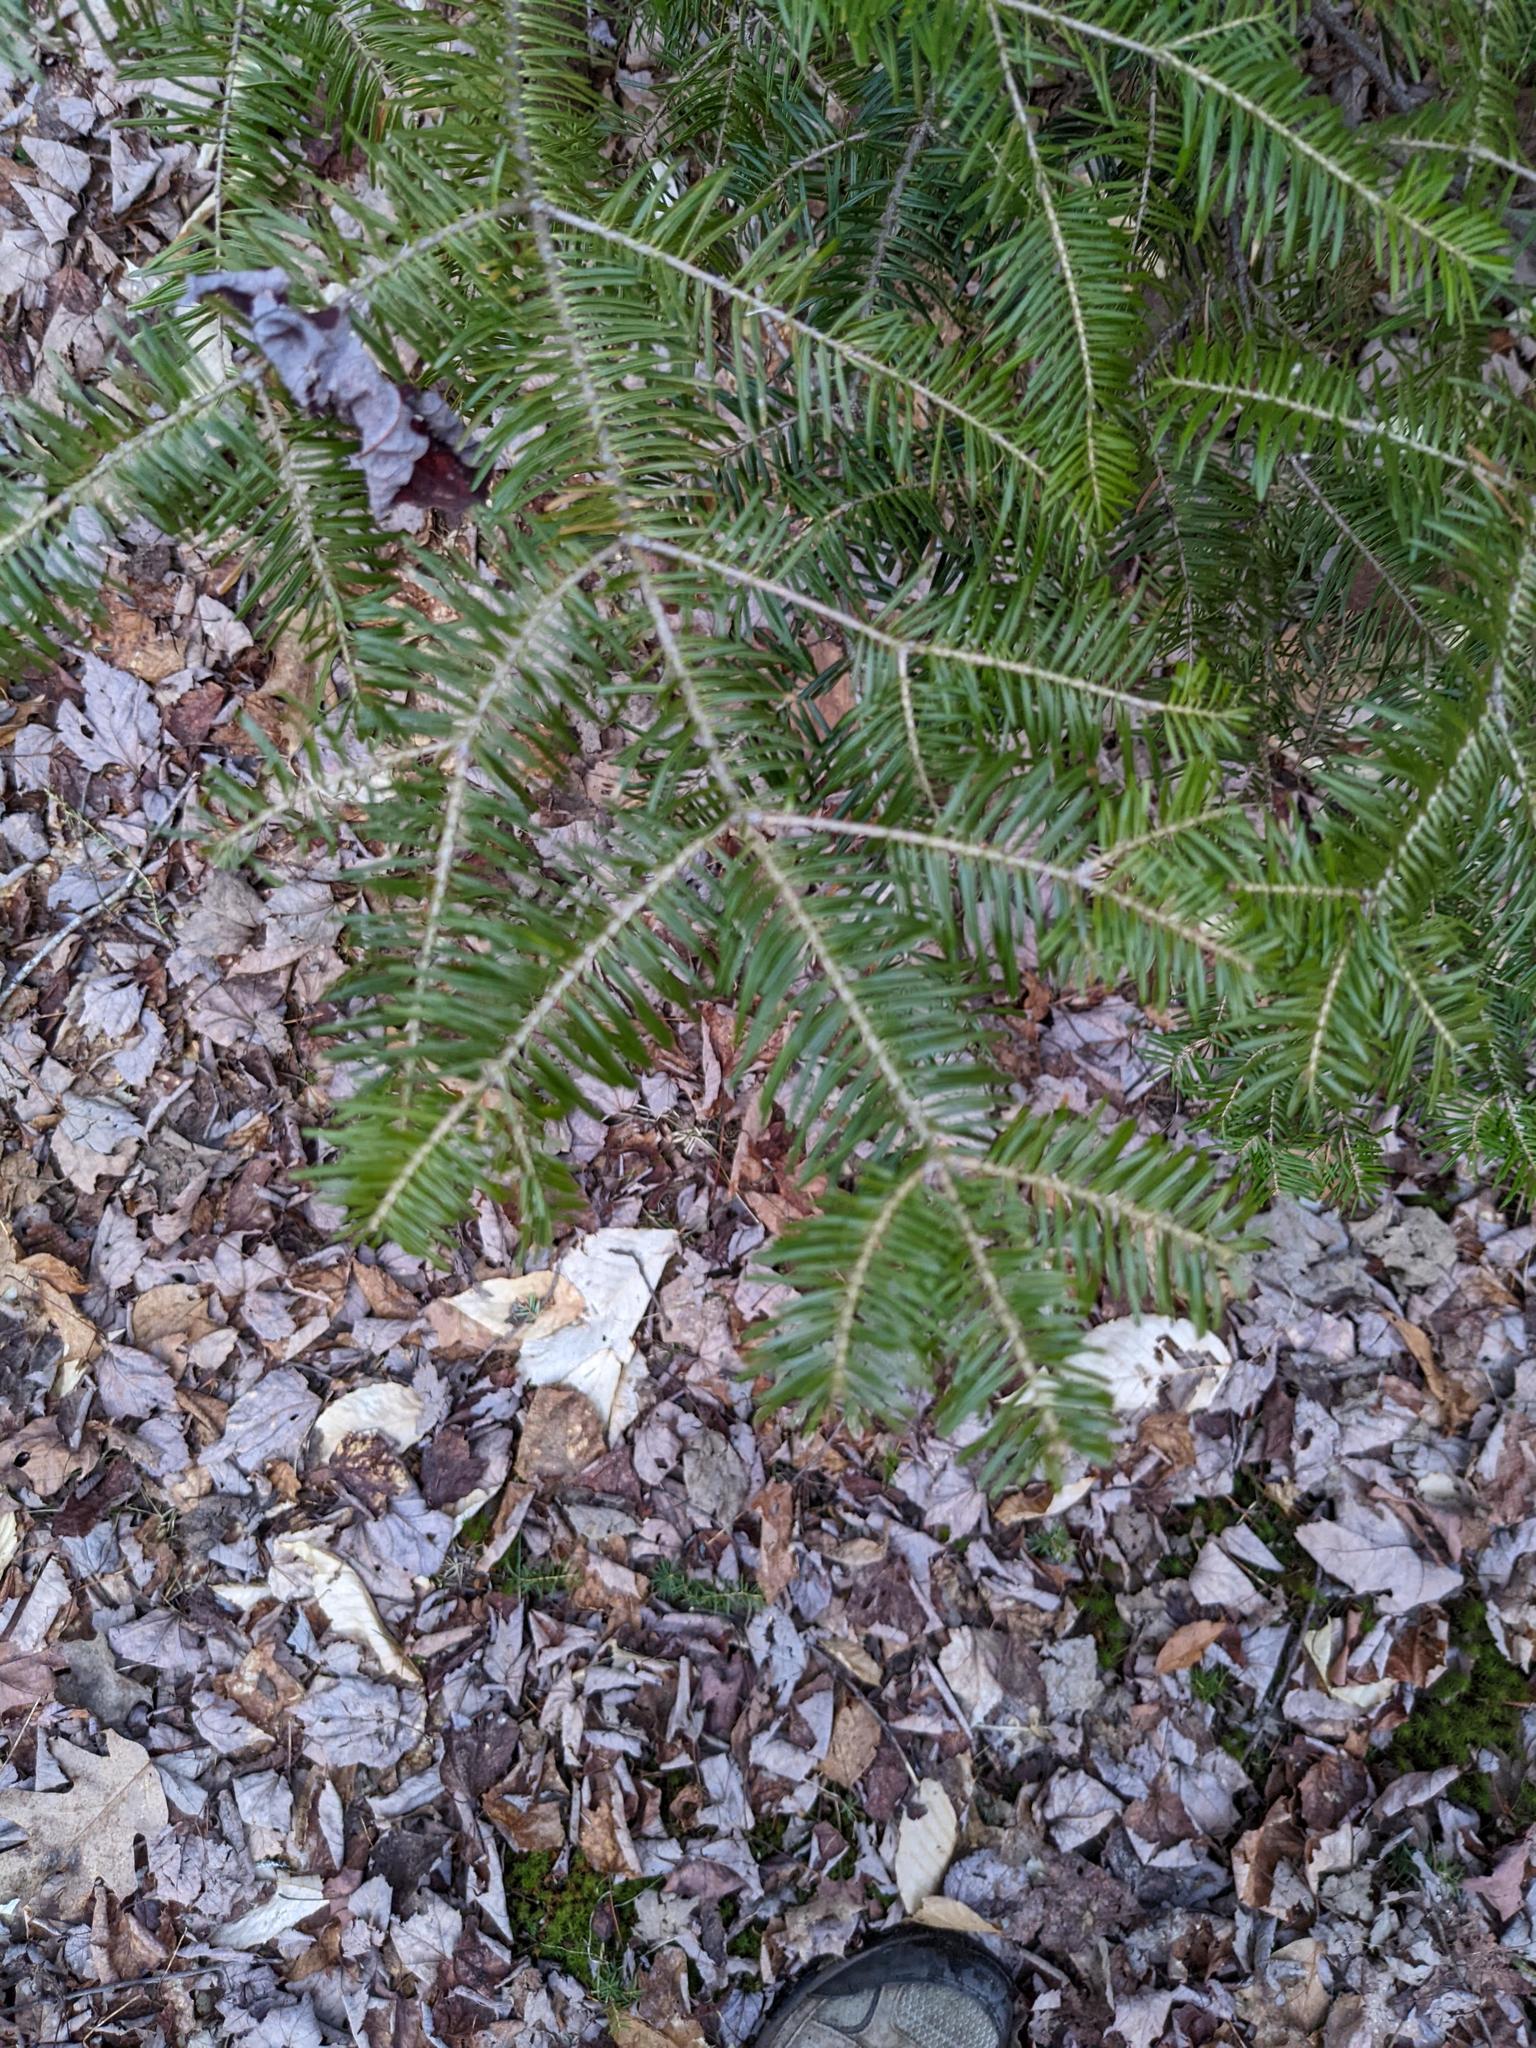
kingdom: Plantae
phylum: Tracheophyta
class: Pinopsida
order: Pinales
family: Pinaceae
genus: Abies
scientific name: Abies balsamea
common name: Balsam fir
